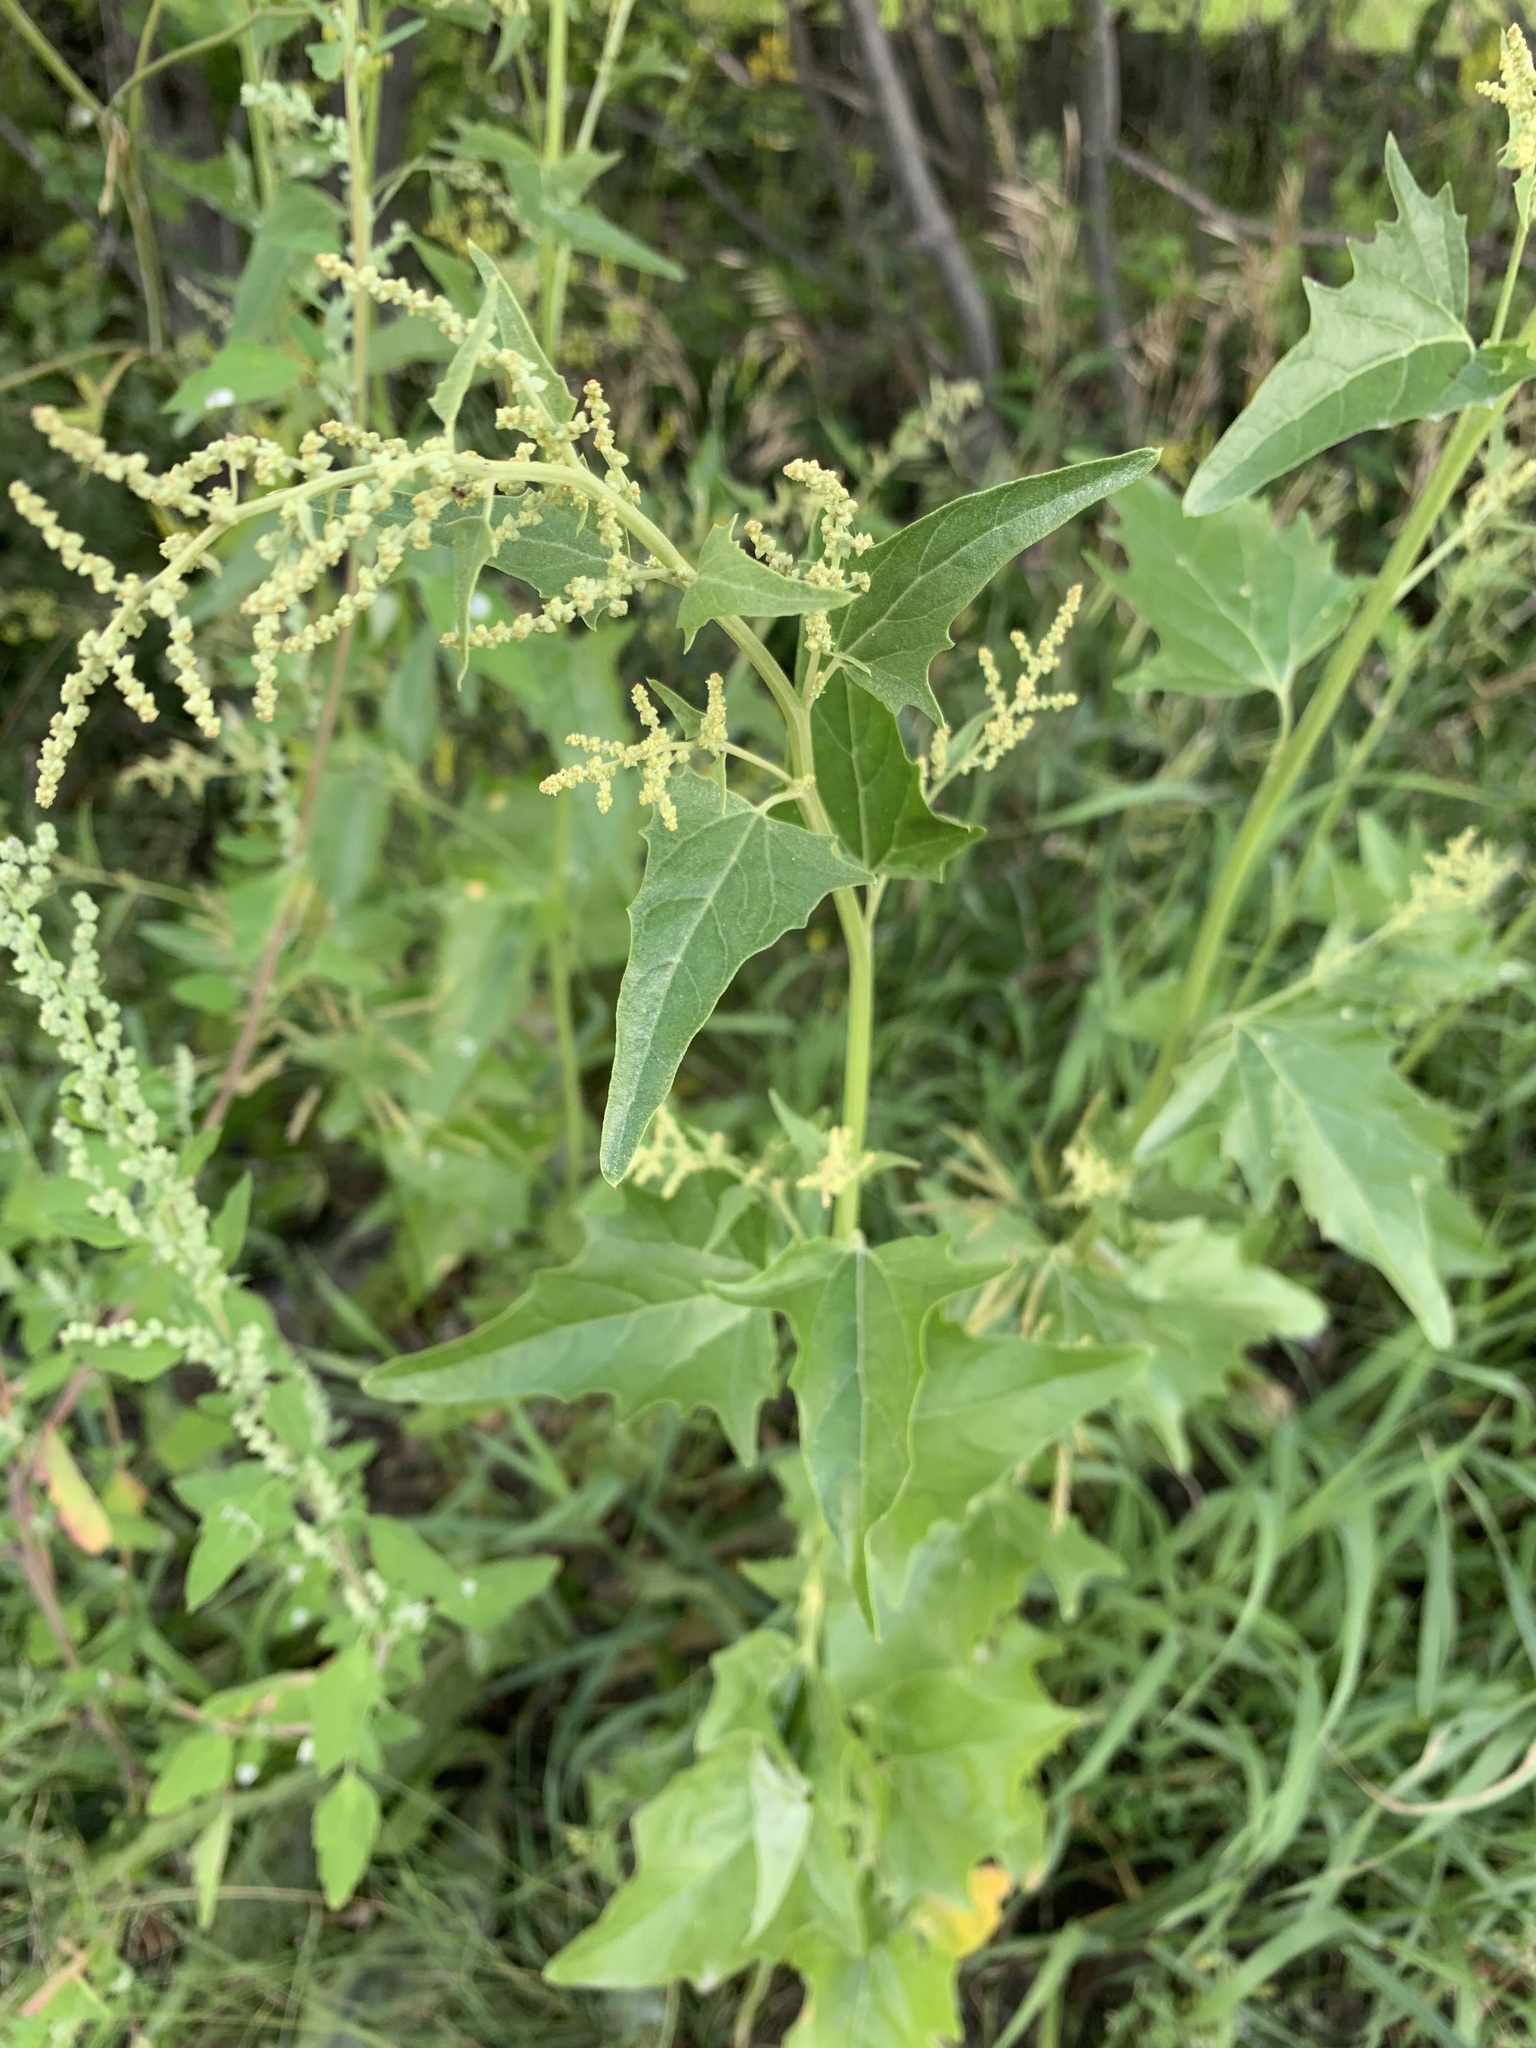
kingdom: Plantae
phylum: Tracheophyta
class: Magnoliopsida
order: Caryophyllales
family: Amaranthaceae
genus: Atriplex
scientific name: Atriplex sagittata
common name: Purple orache
